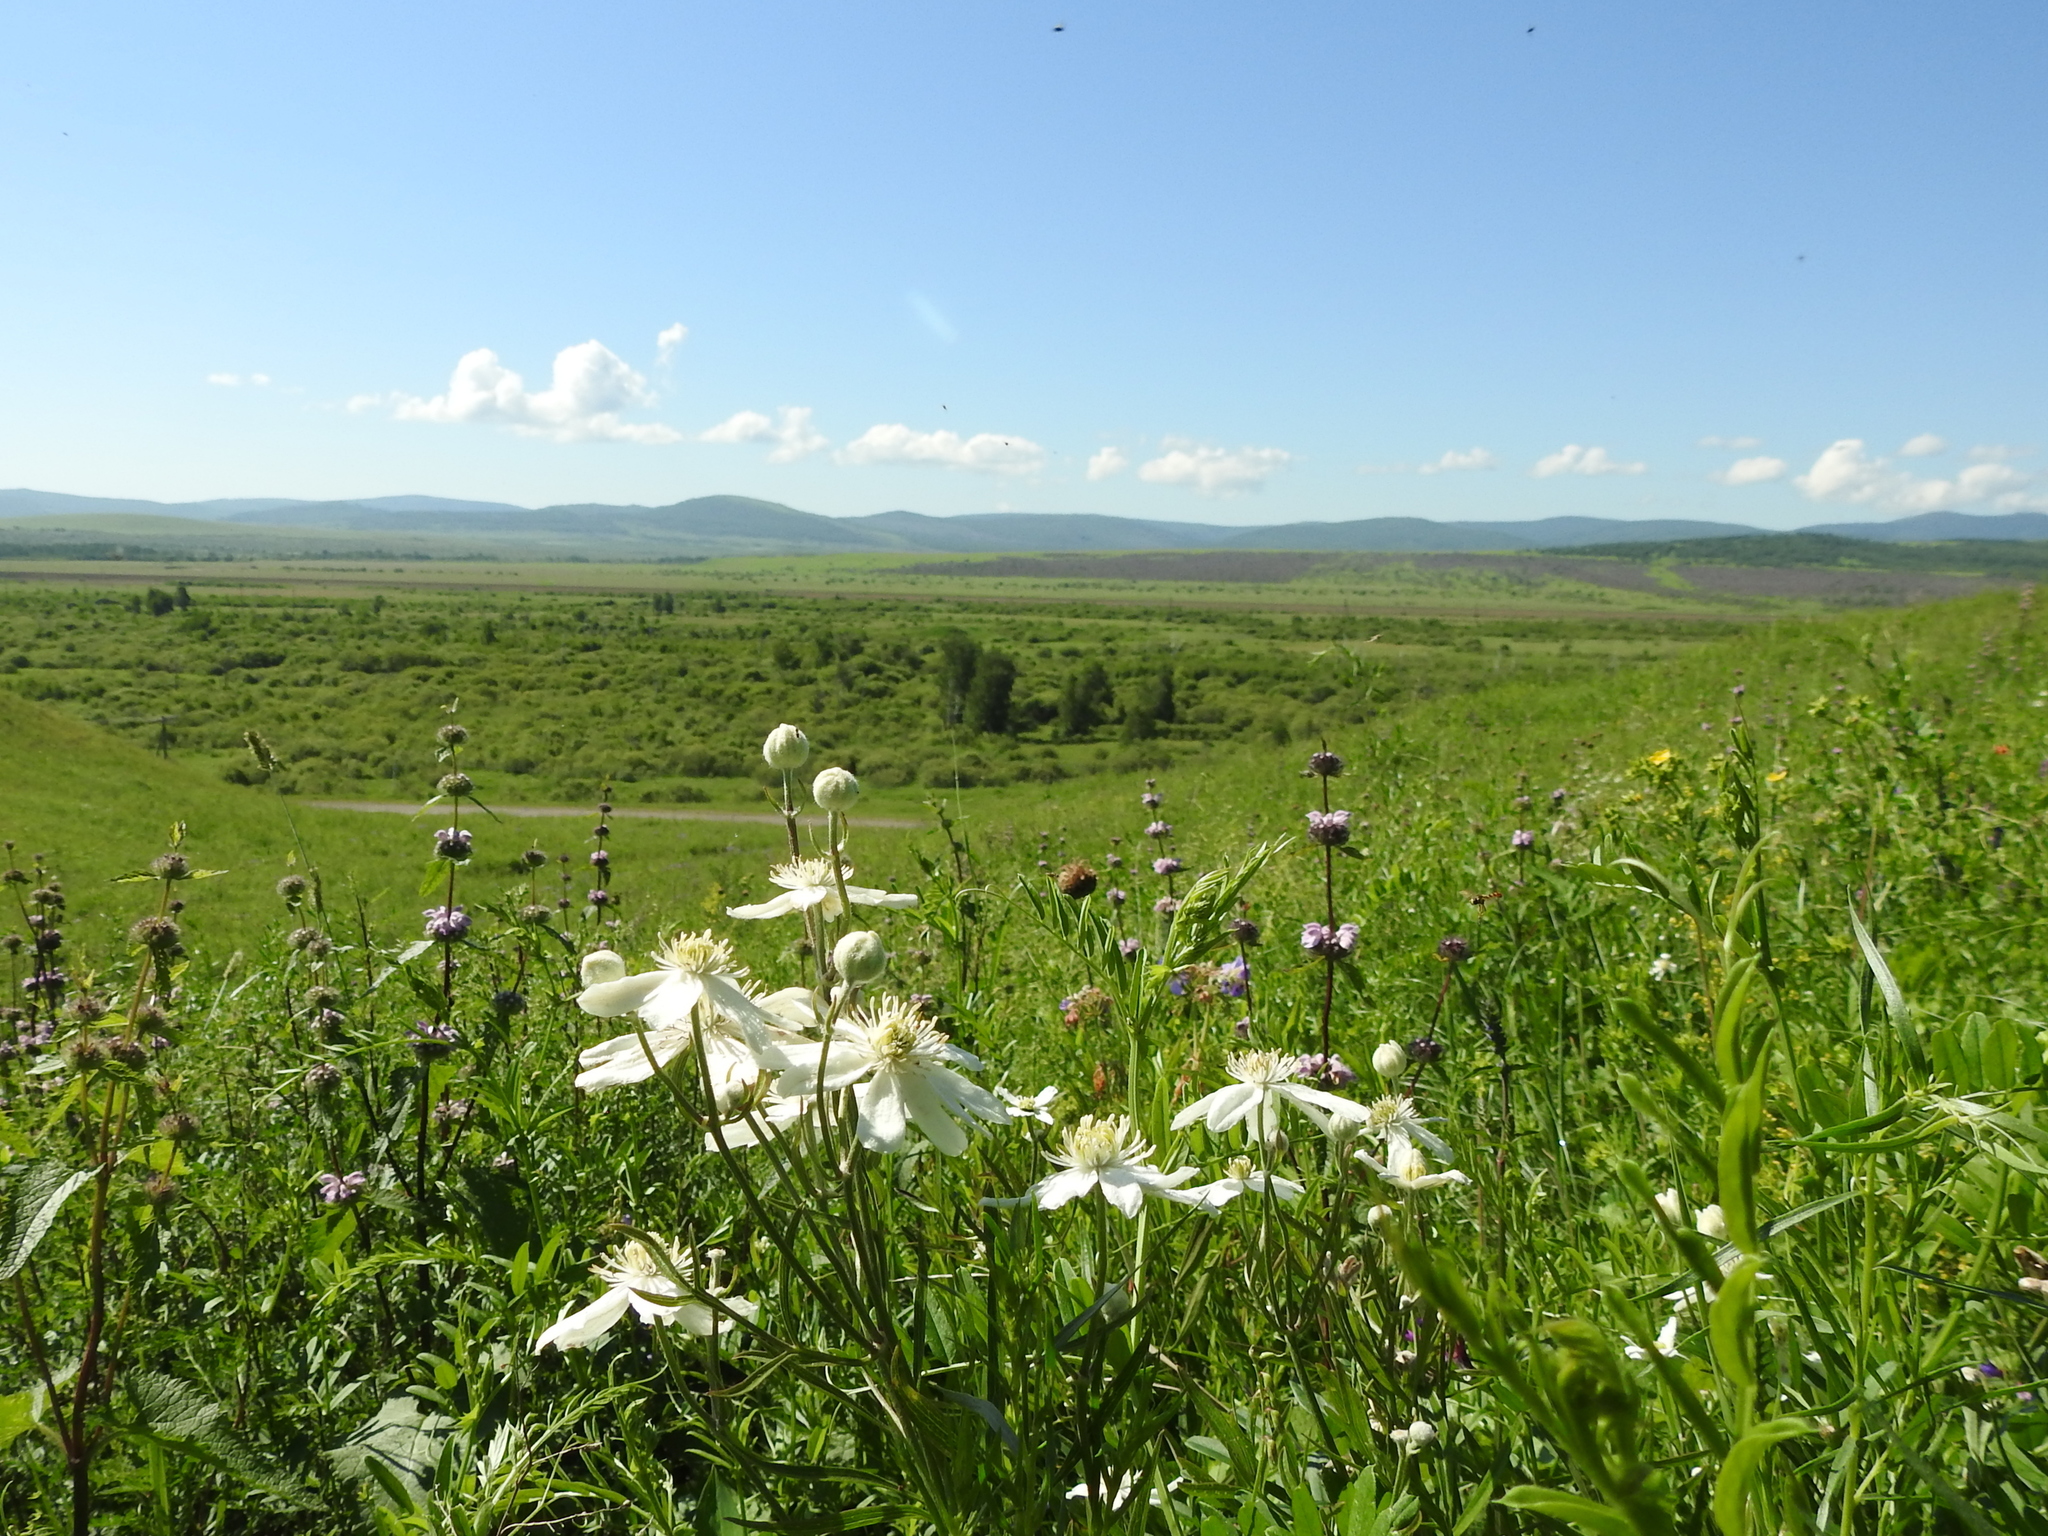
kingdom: Plantae
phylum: Tracheophyta
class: Magnoliopsida
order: Ranunculales
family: Ranunculaceae
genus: Clematis
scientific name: Clematis hexapetala
